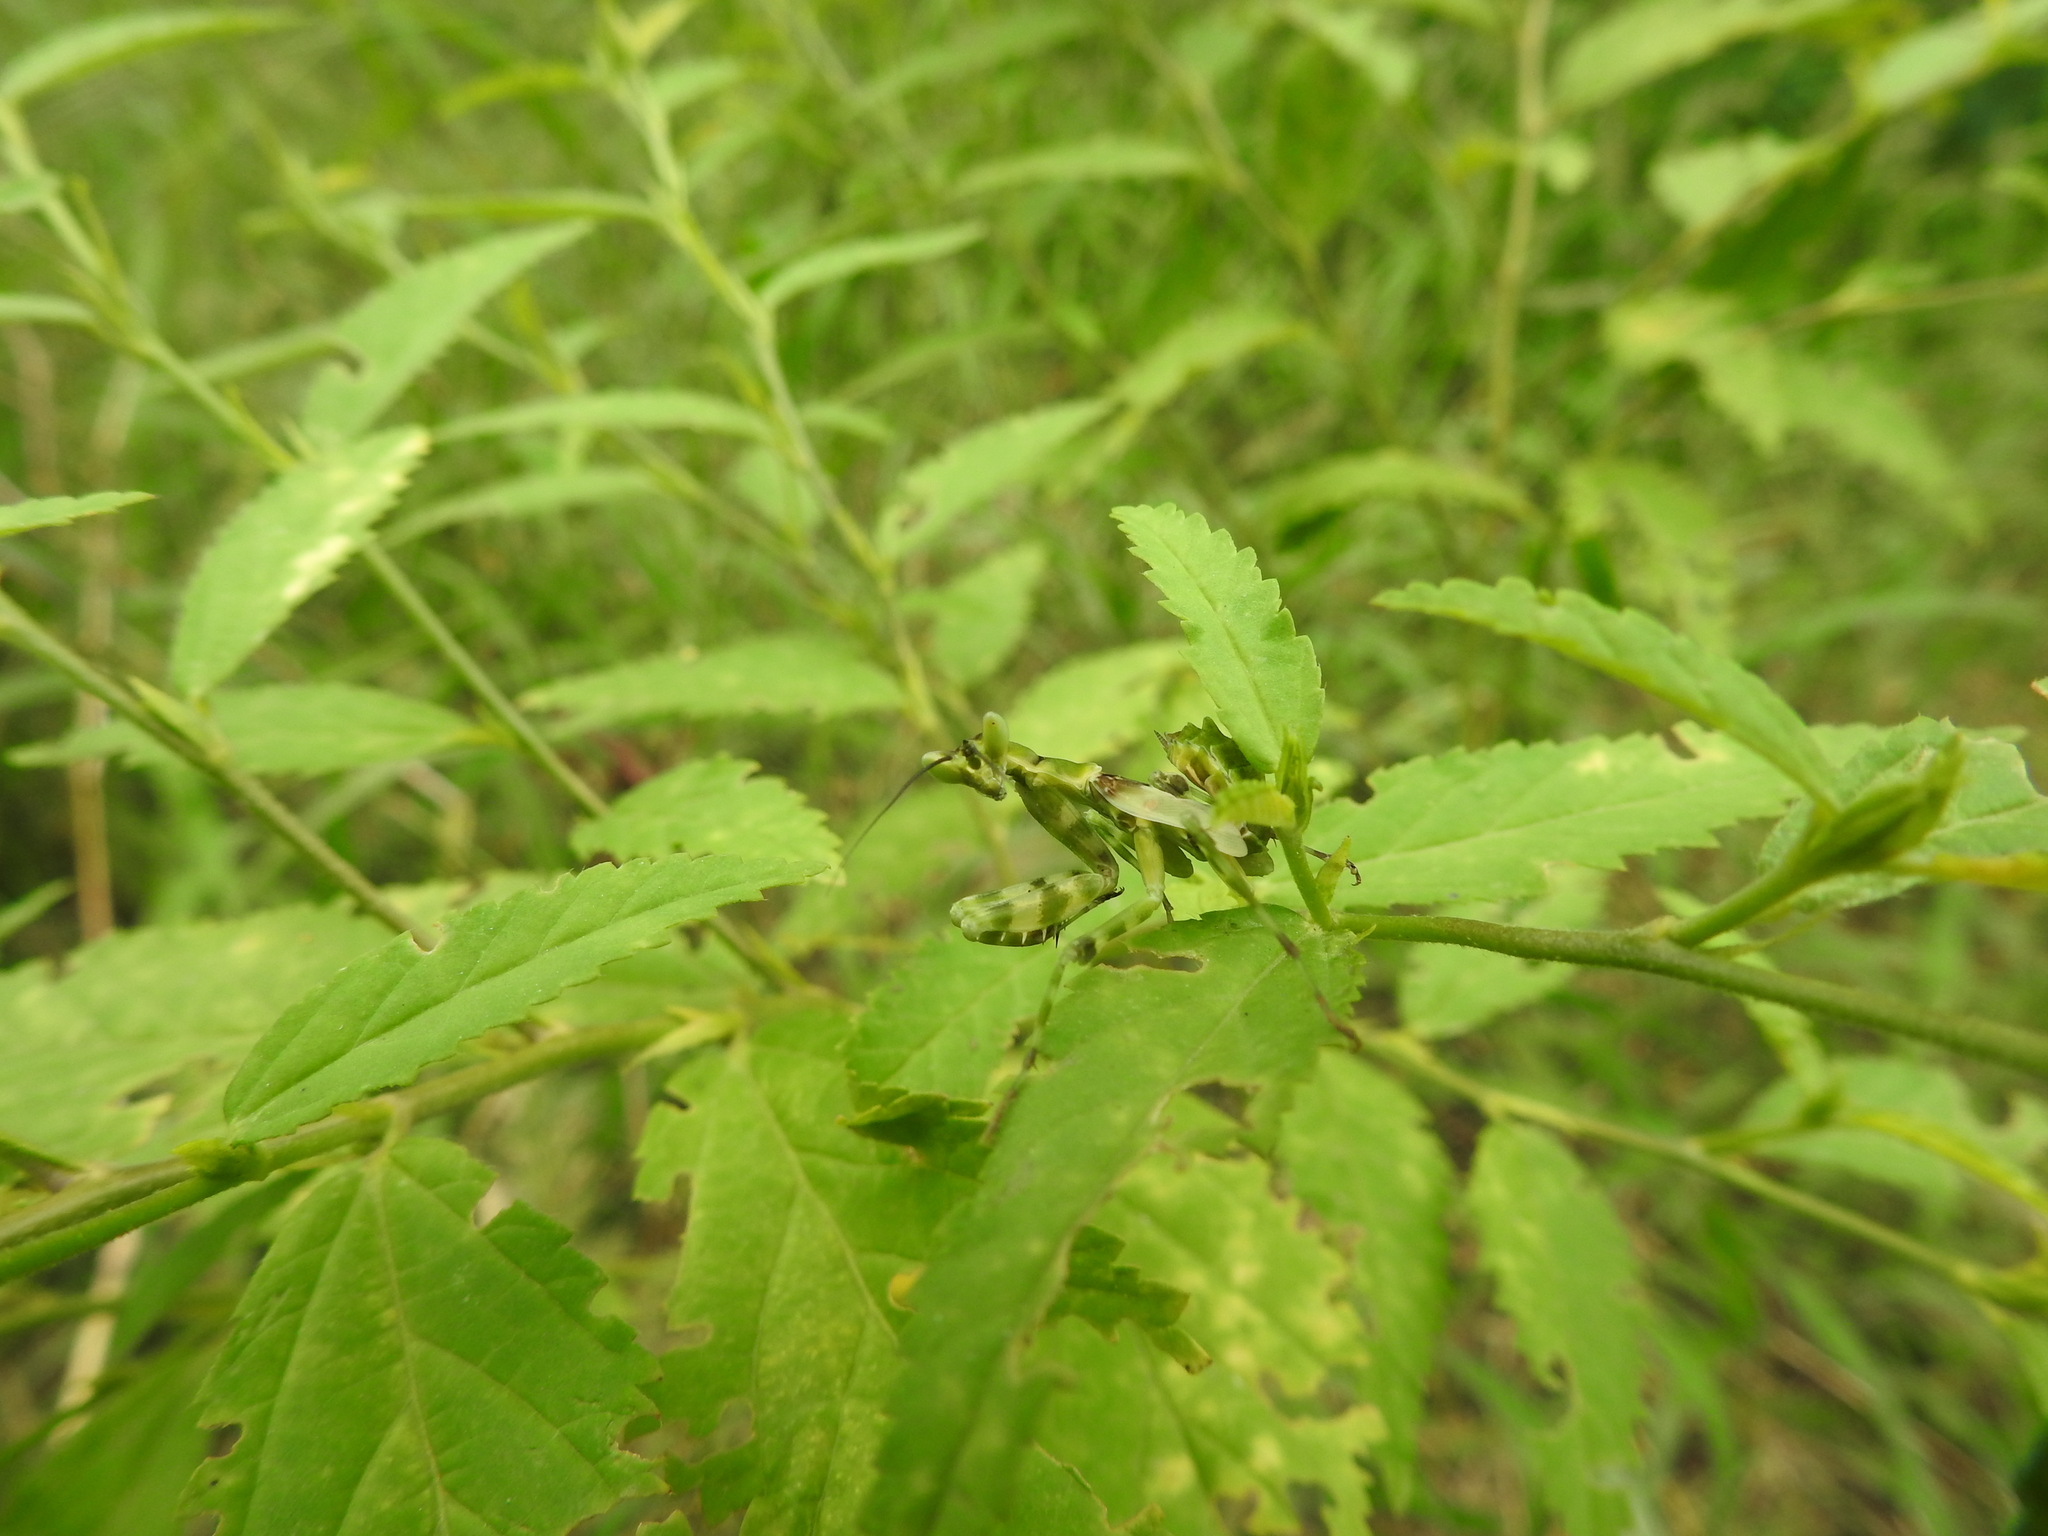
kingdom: Animalia
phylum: Arthropoda
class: Insecta
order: Mantodea
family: Hymenopodidae
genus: Creobroter
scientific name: Creobroter pictipennis
